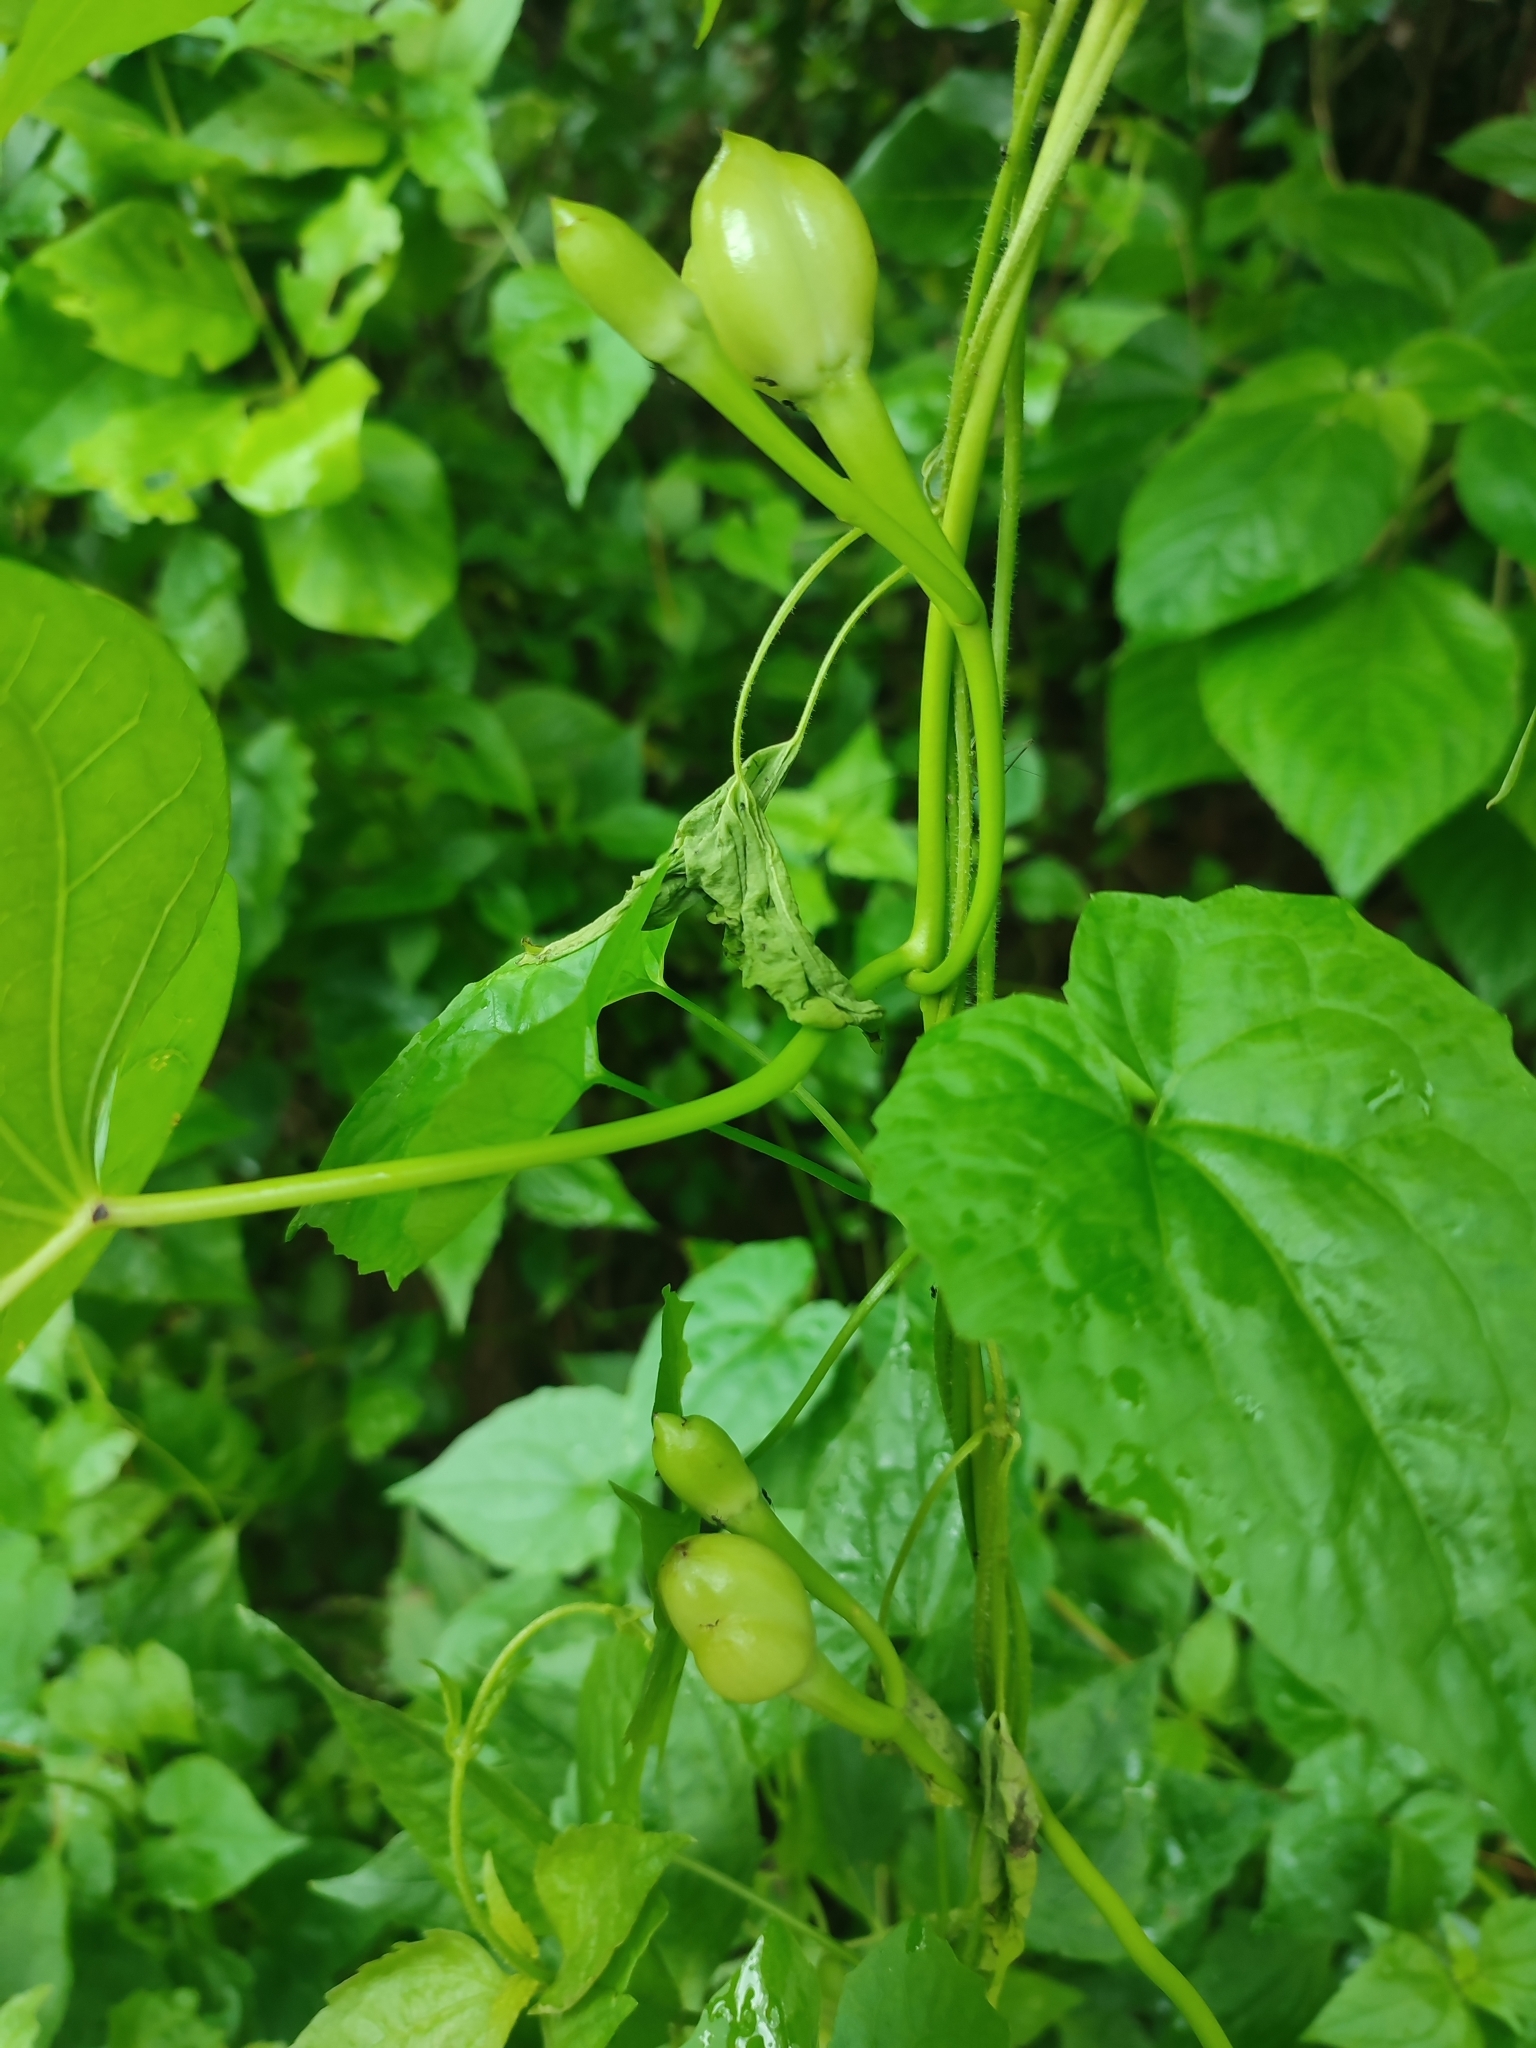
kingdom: Plantae
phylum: Tracheophyta
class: Magnoliopsida
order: Solanales
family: Convolvulaceae
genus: Ipomoea
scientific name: Ipomoea violacea
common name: Beach moonflower
